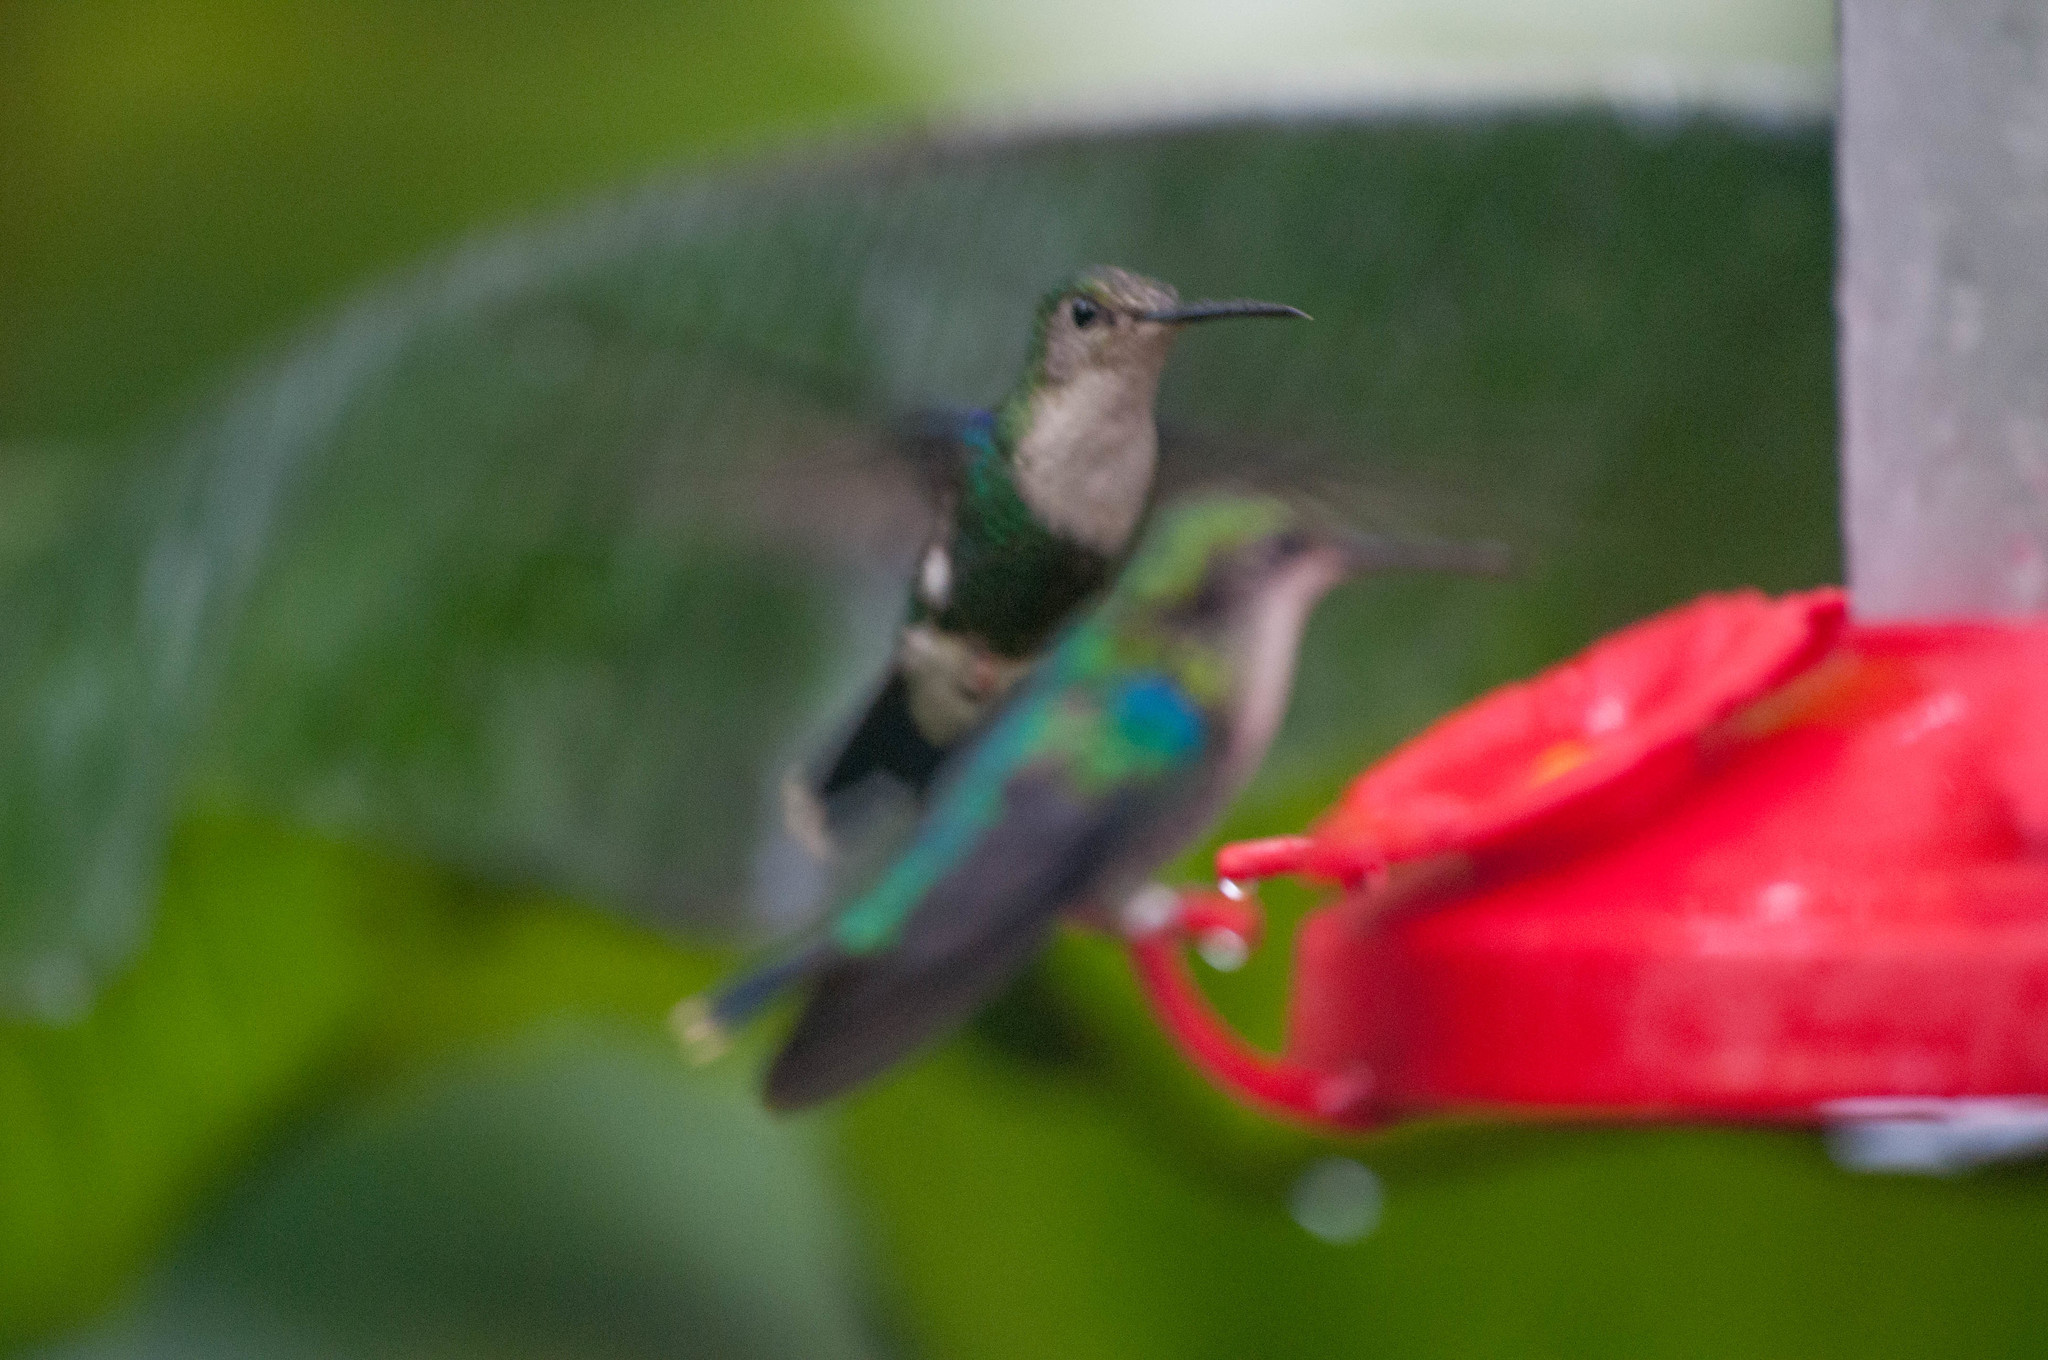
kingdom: Animalia
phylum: Chordata
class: Aves
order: Apodiformes
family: Trochilidae
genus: Thalurania
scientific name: Thalurania colombica
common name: Crowned woodnymph
